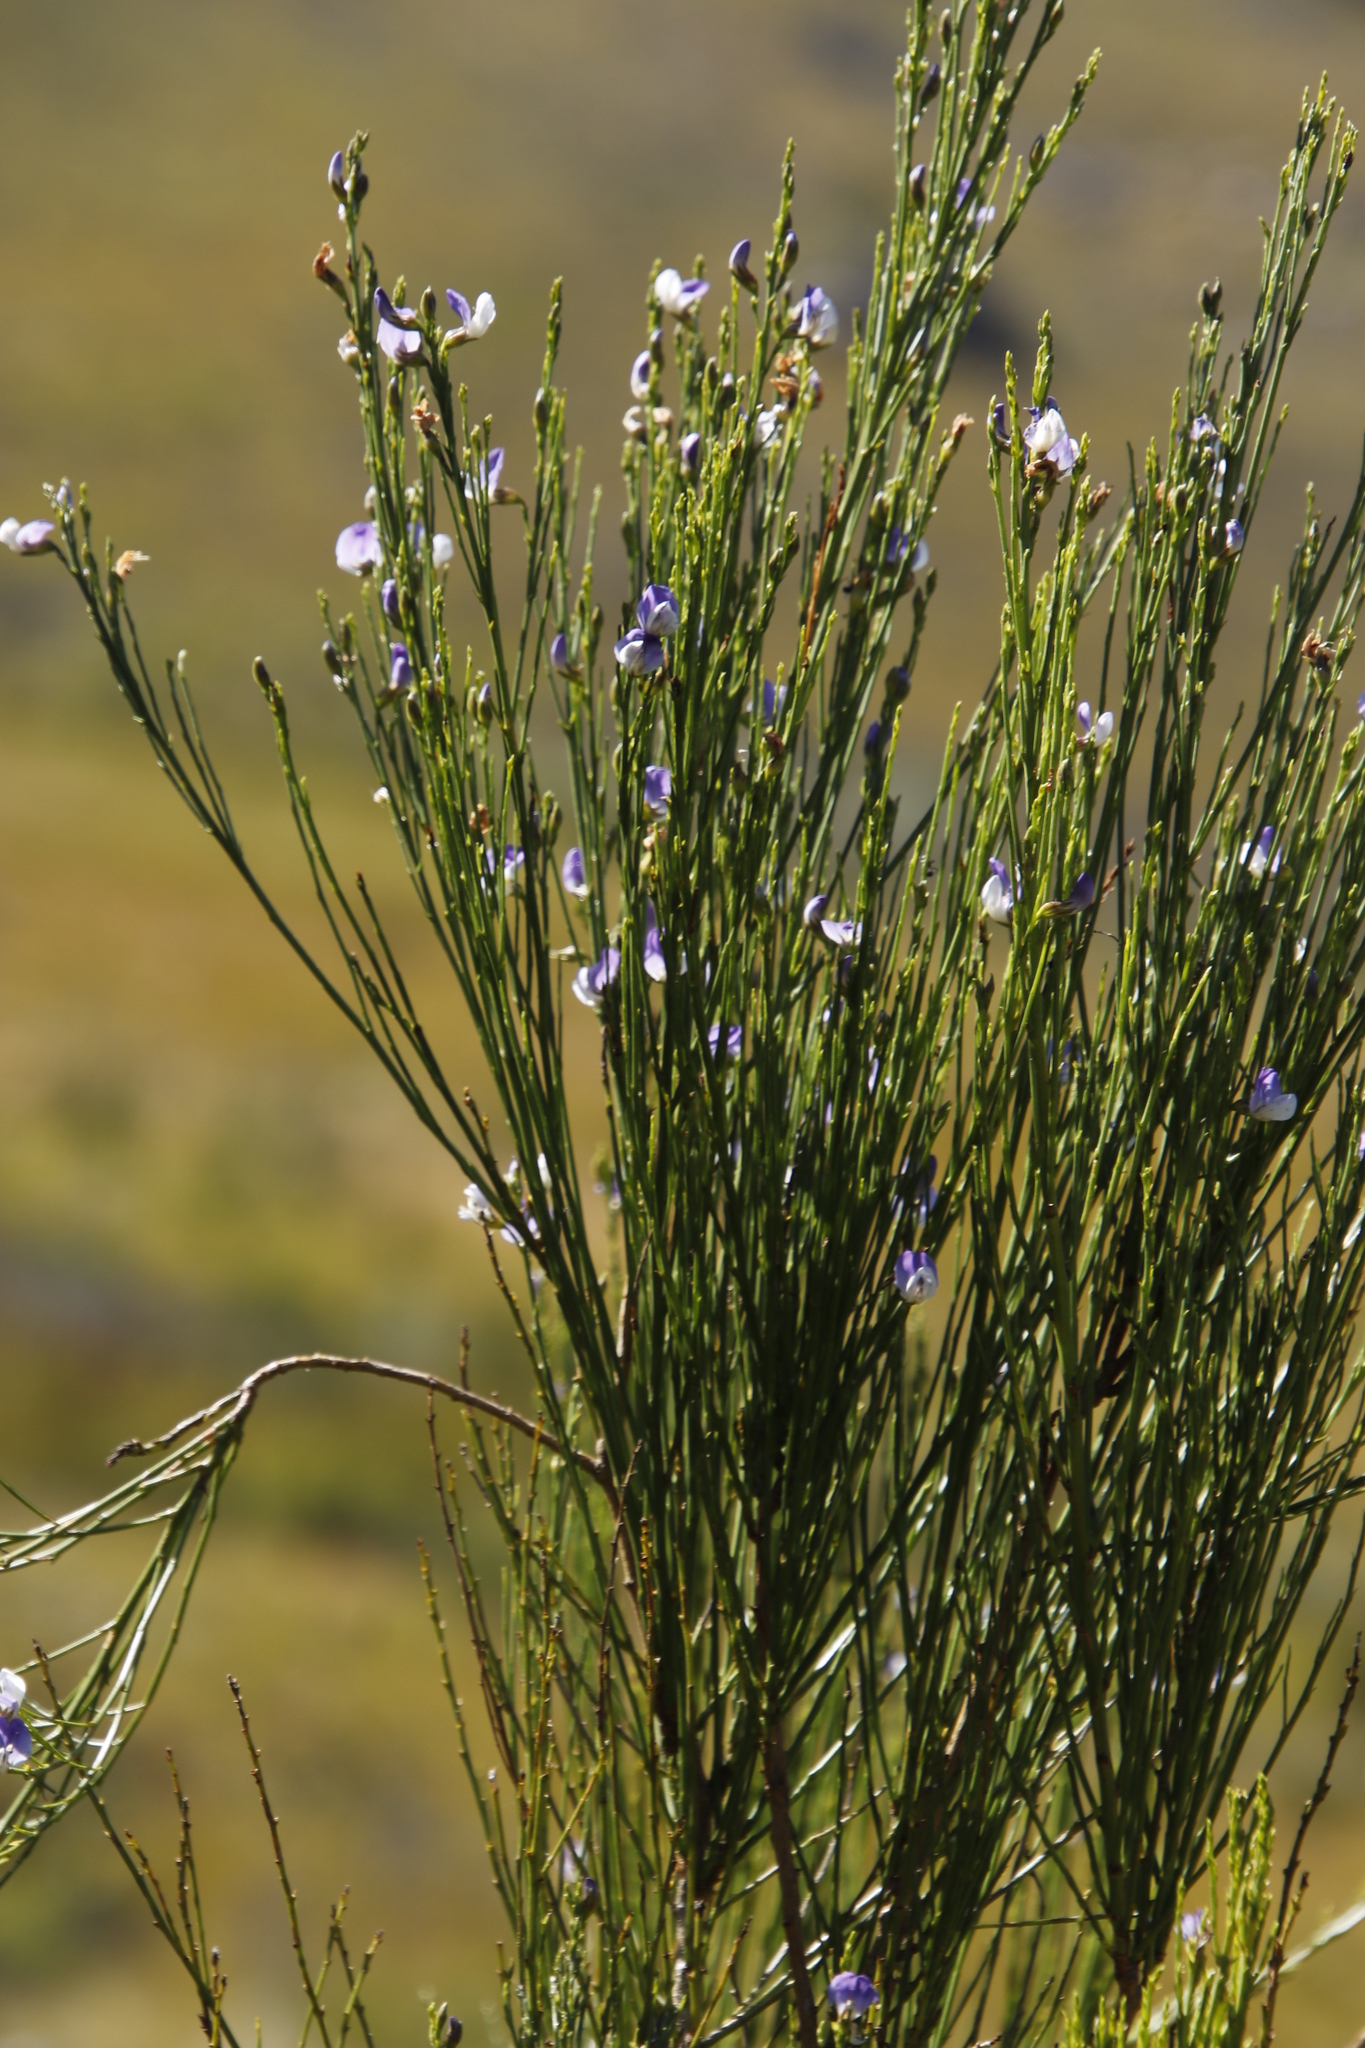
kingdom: Plantae
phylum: Tracheophyta
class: Magnoliopsida
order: Fabales
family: Fabaceae
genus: Psoralea
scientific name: Psoralea usitata
